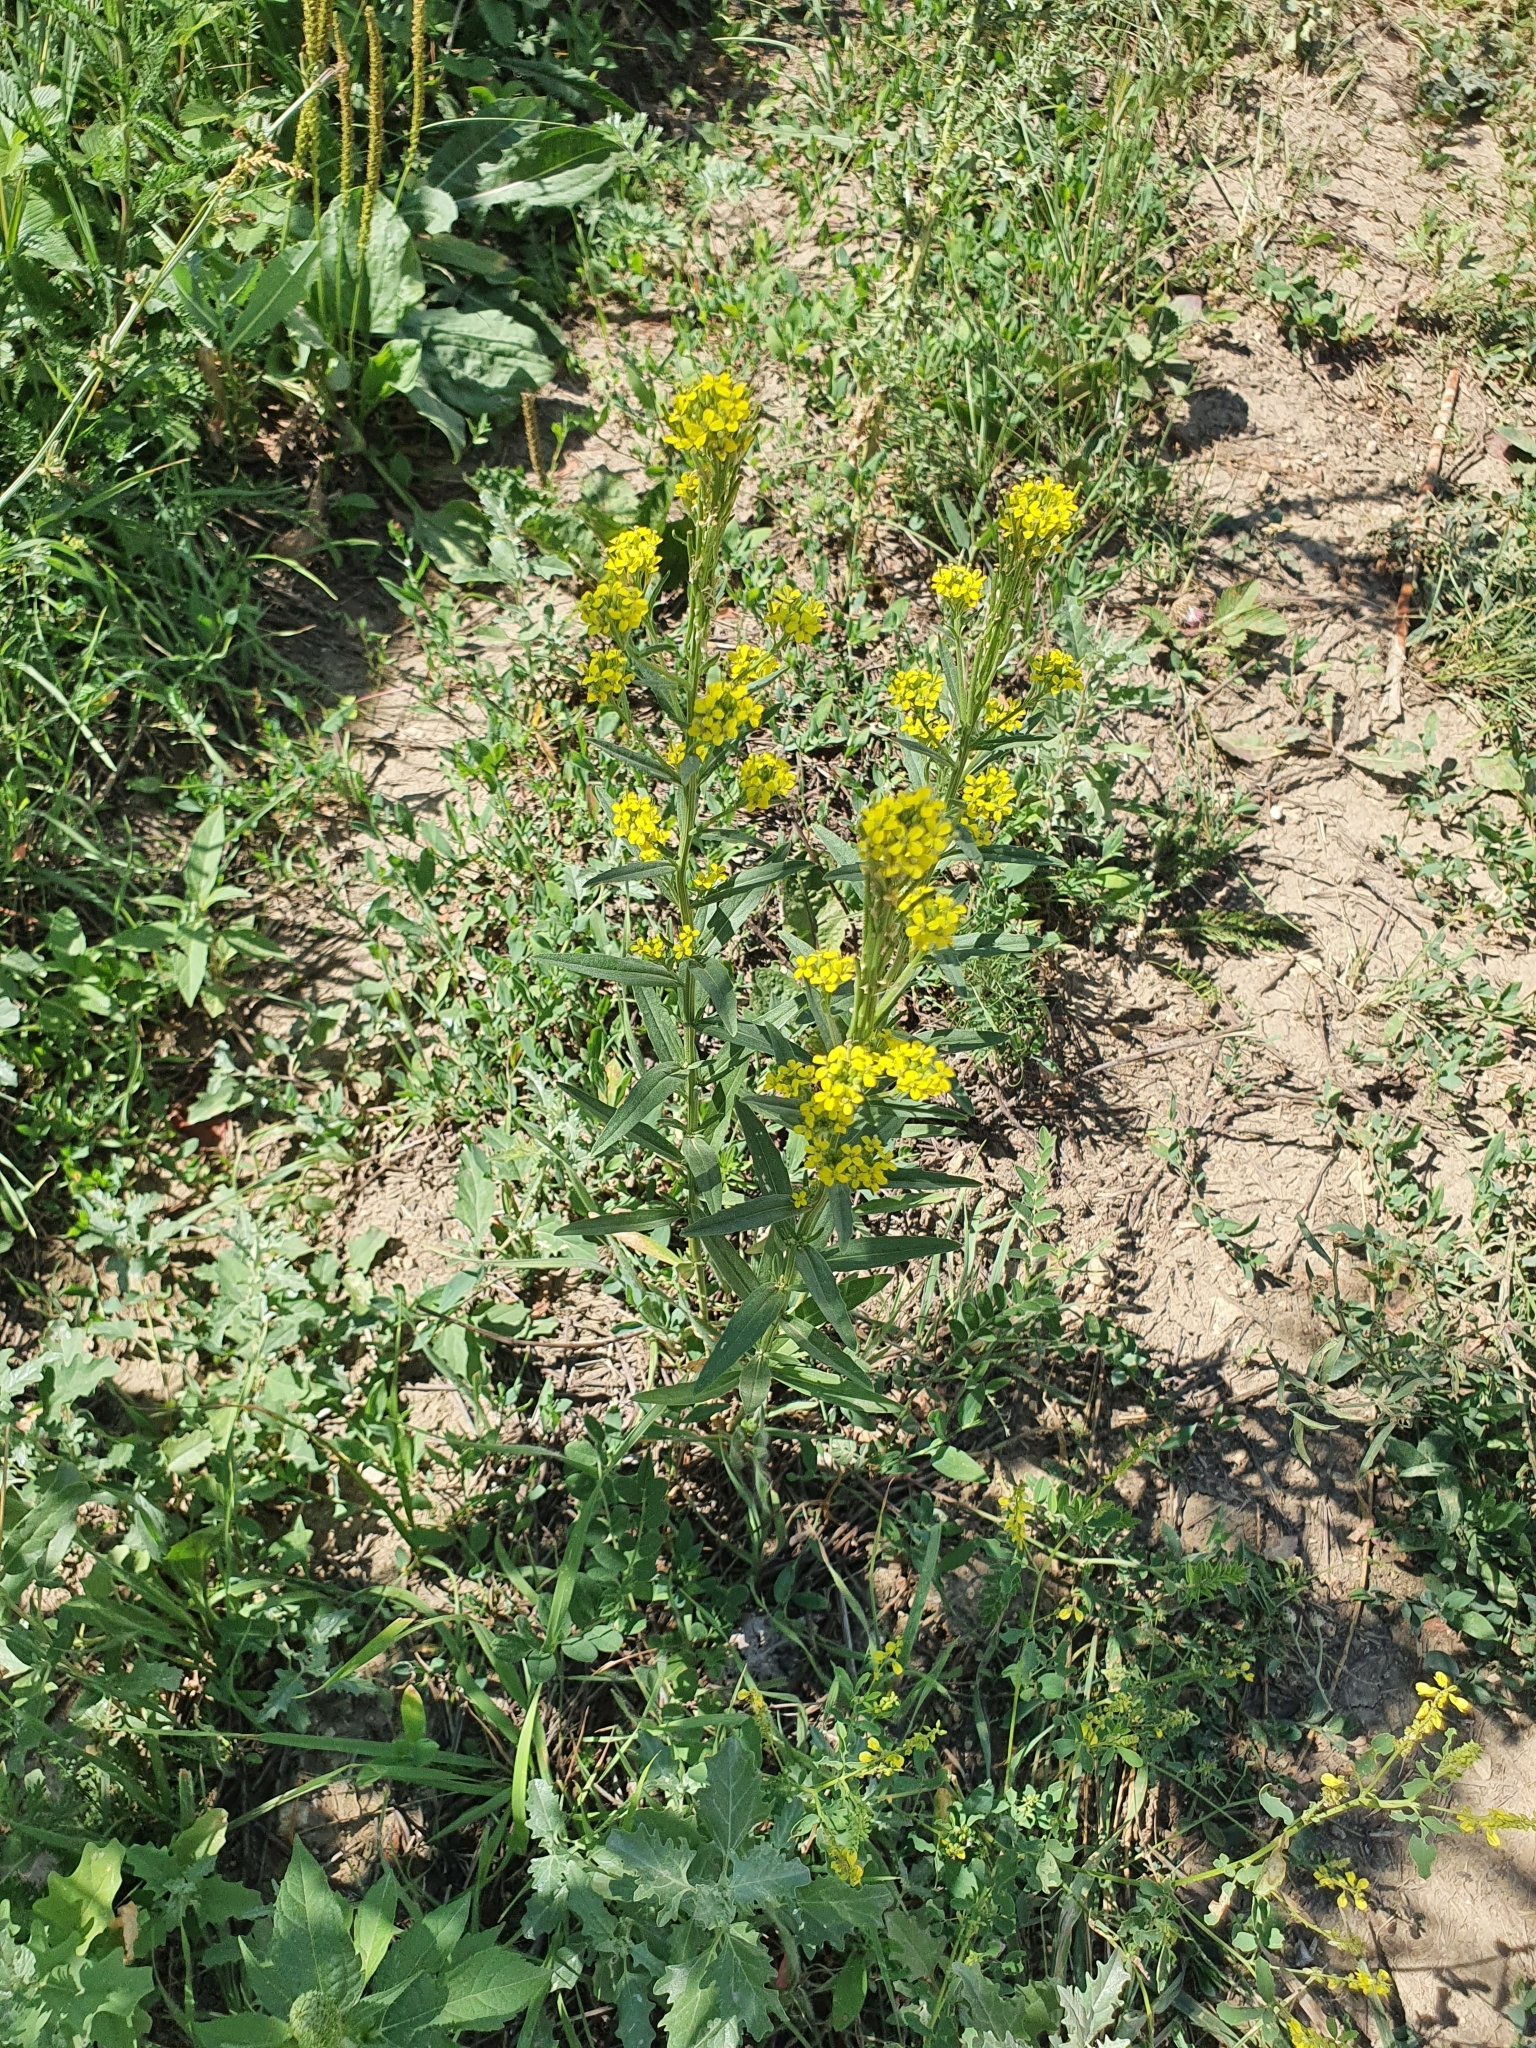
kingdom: Plantae
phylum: Tracheophyta
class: Magnoliopsida
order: Brassicales
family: Brassicaceae
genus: Erysimum
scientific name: Erysimum hieraciifolium
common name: European wallflower
